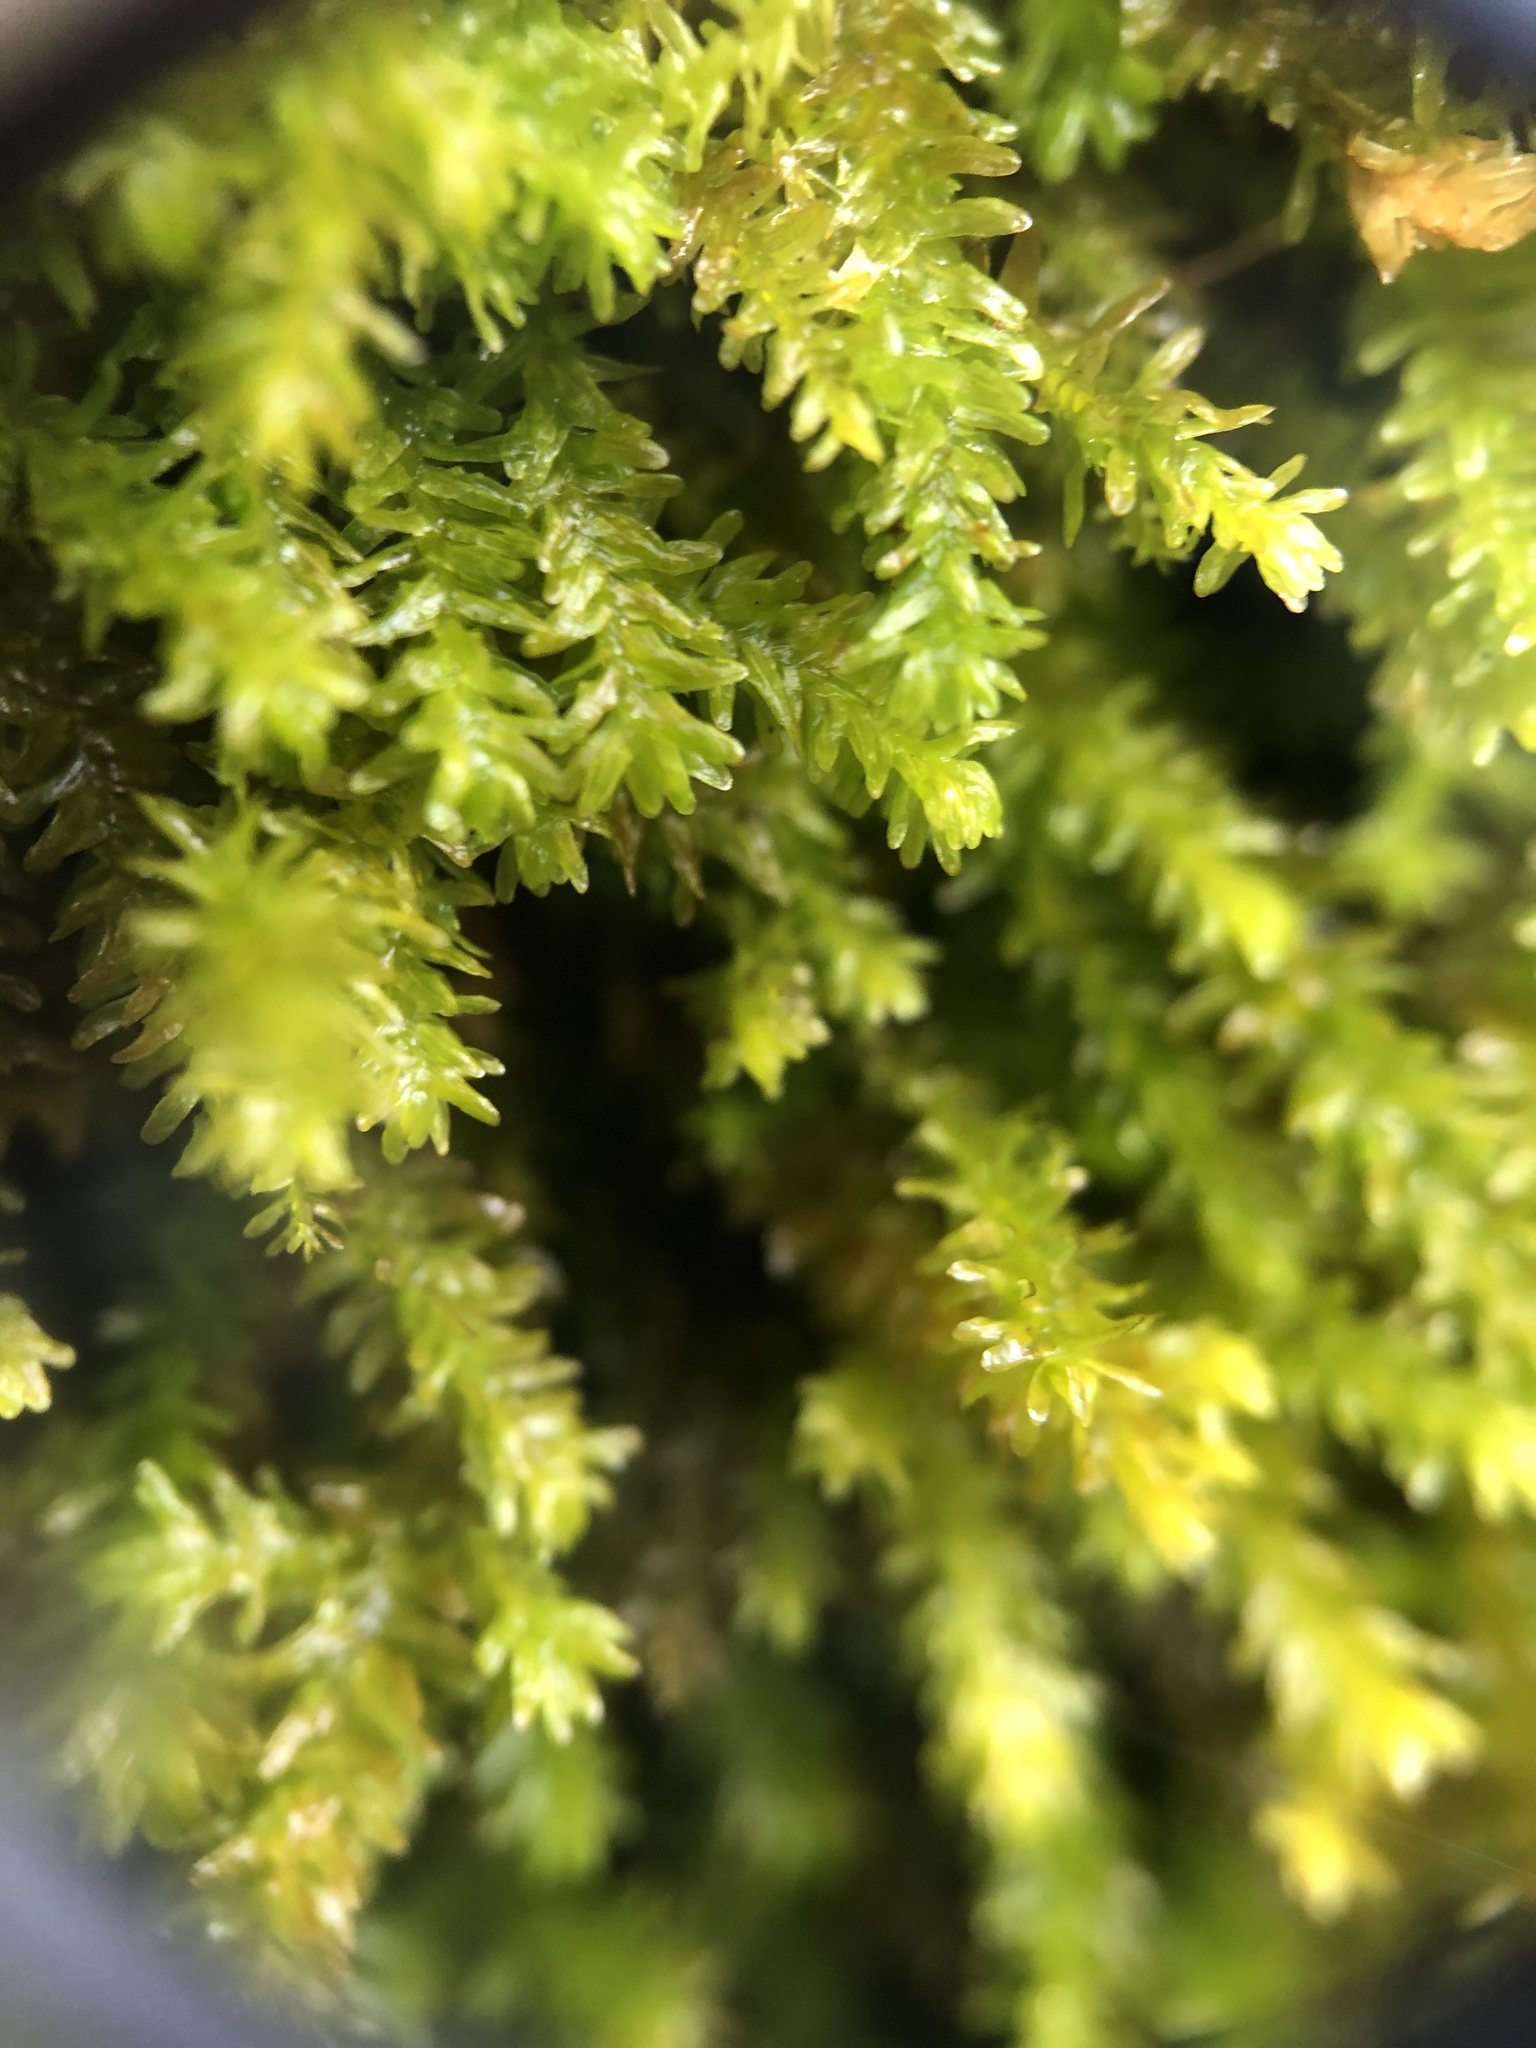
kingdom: Plantae
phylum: Bryophyta
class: Bryopsida
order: Hypnales
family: Anomodontaceae
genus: Anomodon
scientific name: Anomodon minor
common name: Blunt-leaved anomodon
